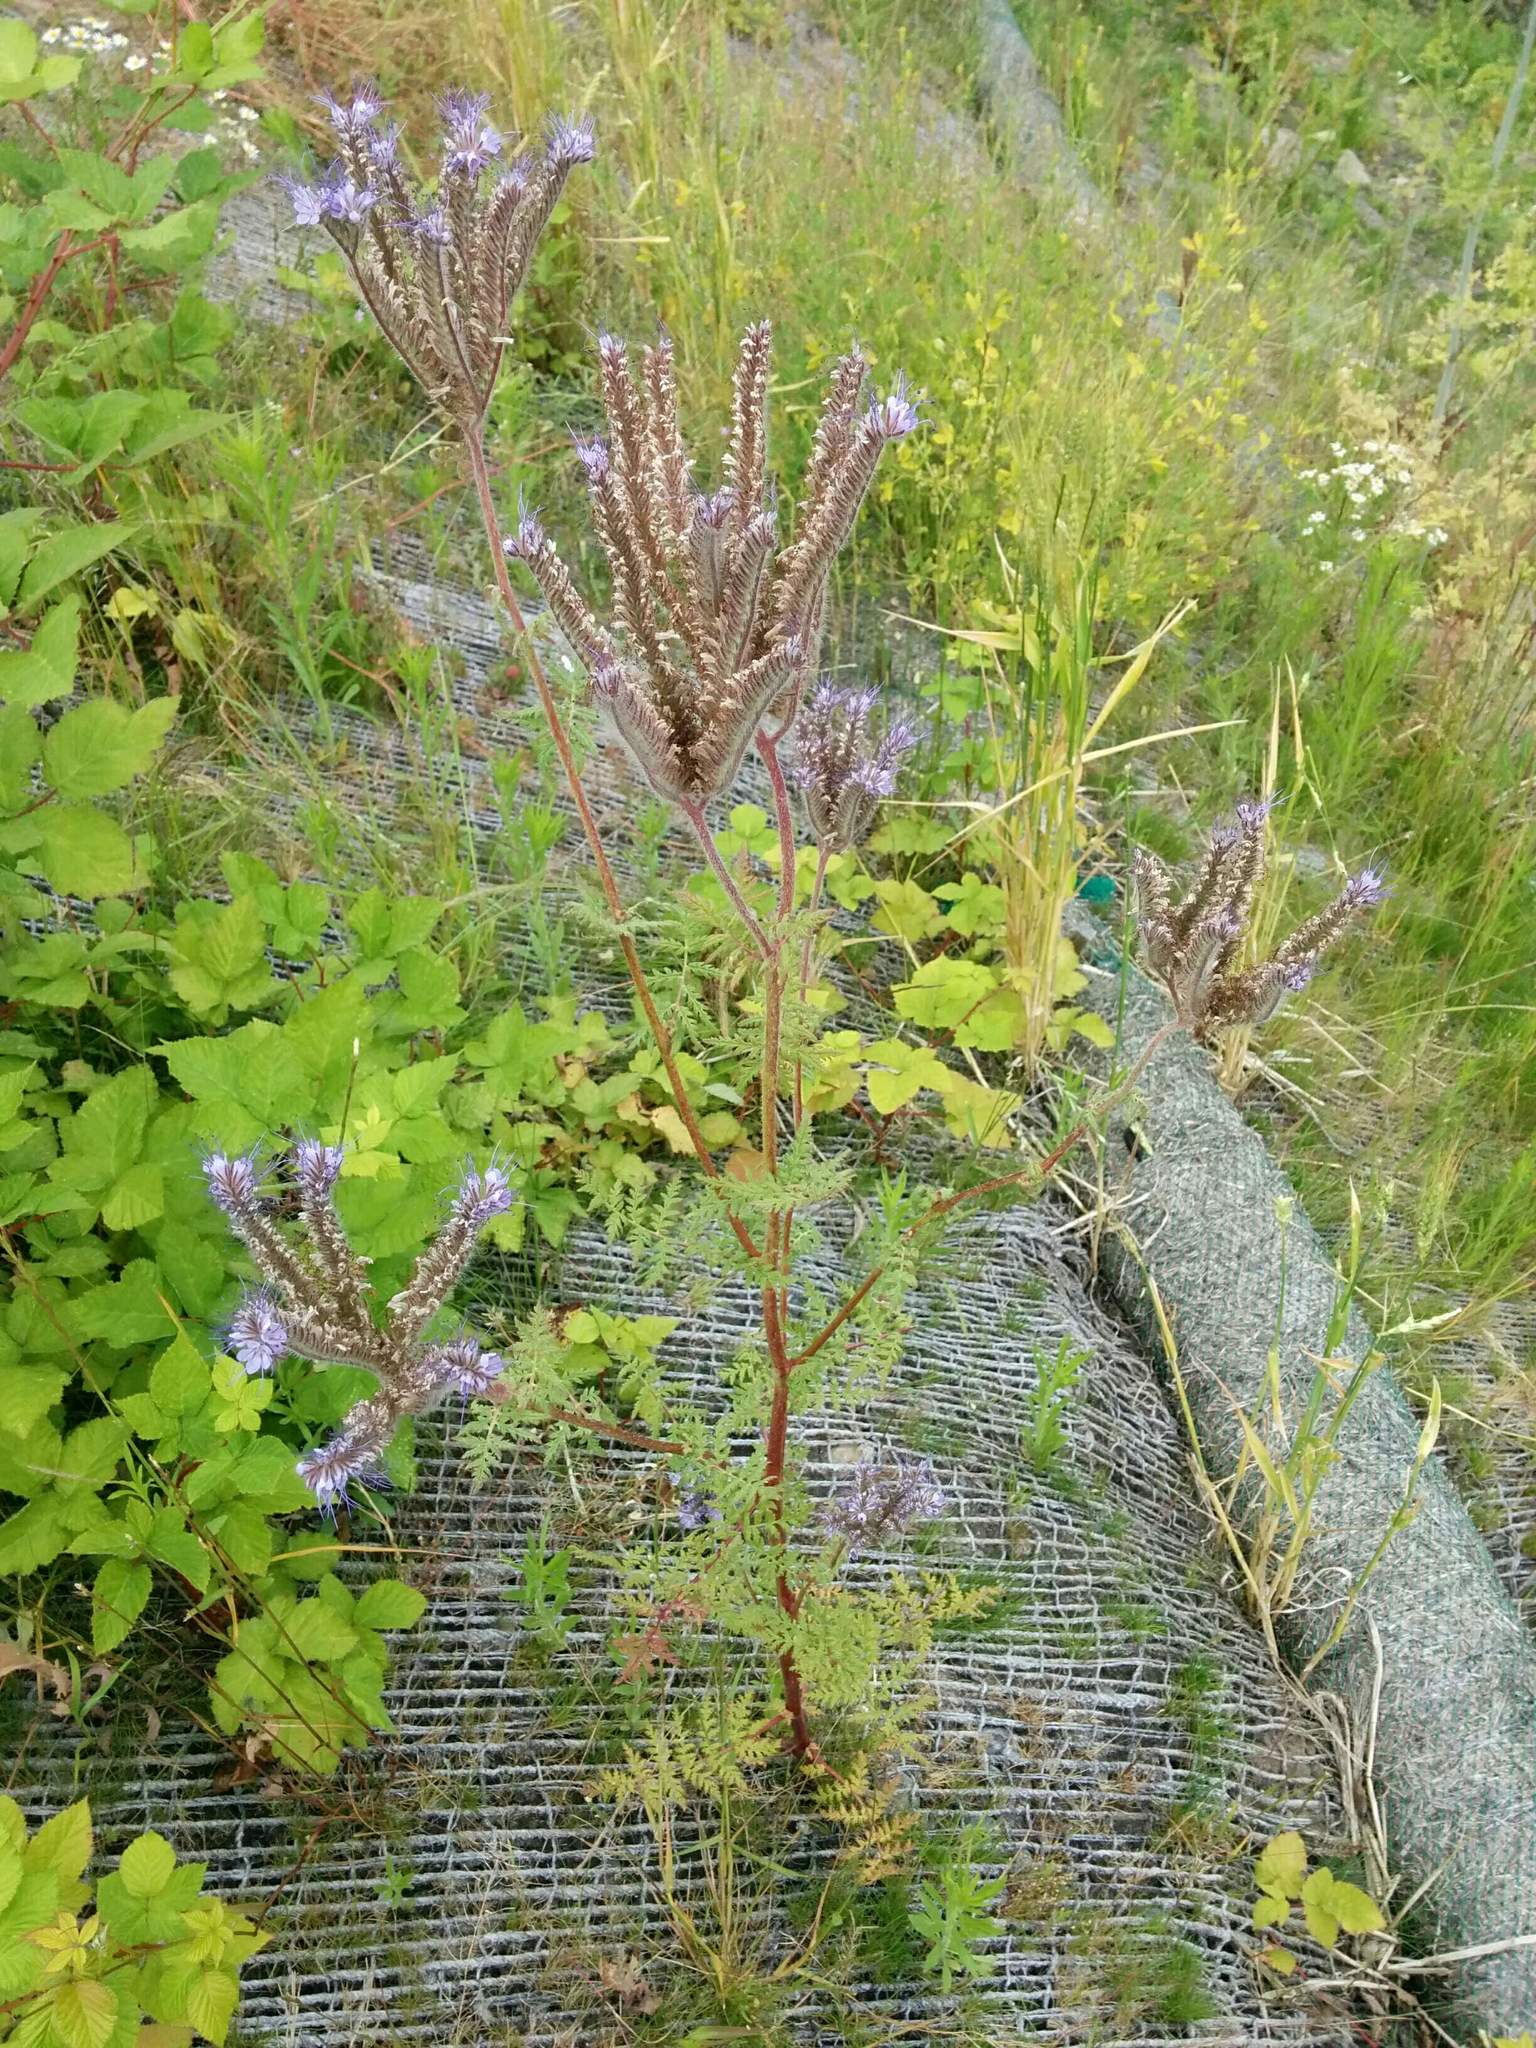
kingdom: Plantae
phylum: Tracheophyta
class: Magnoliopsida
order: Boraginales
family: Hydrophyllaceae
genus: Phacelia
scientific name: Phacelia tanacetifolia
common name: Phacelia
